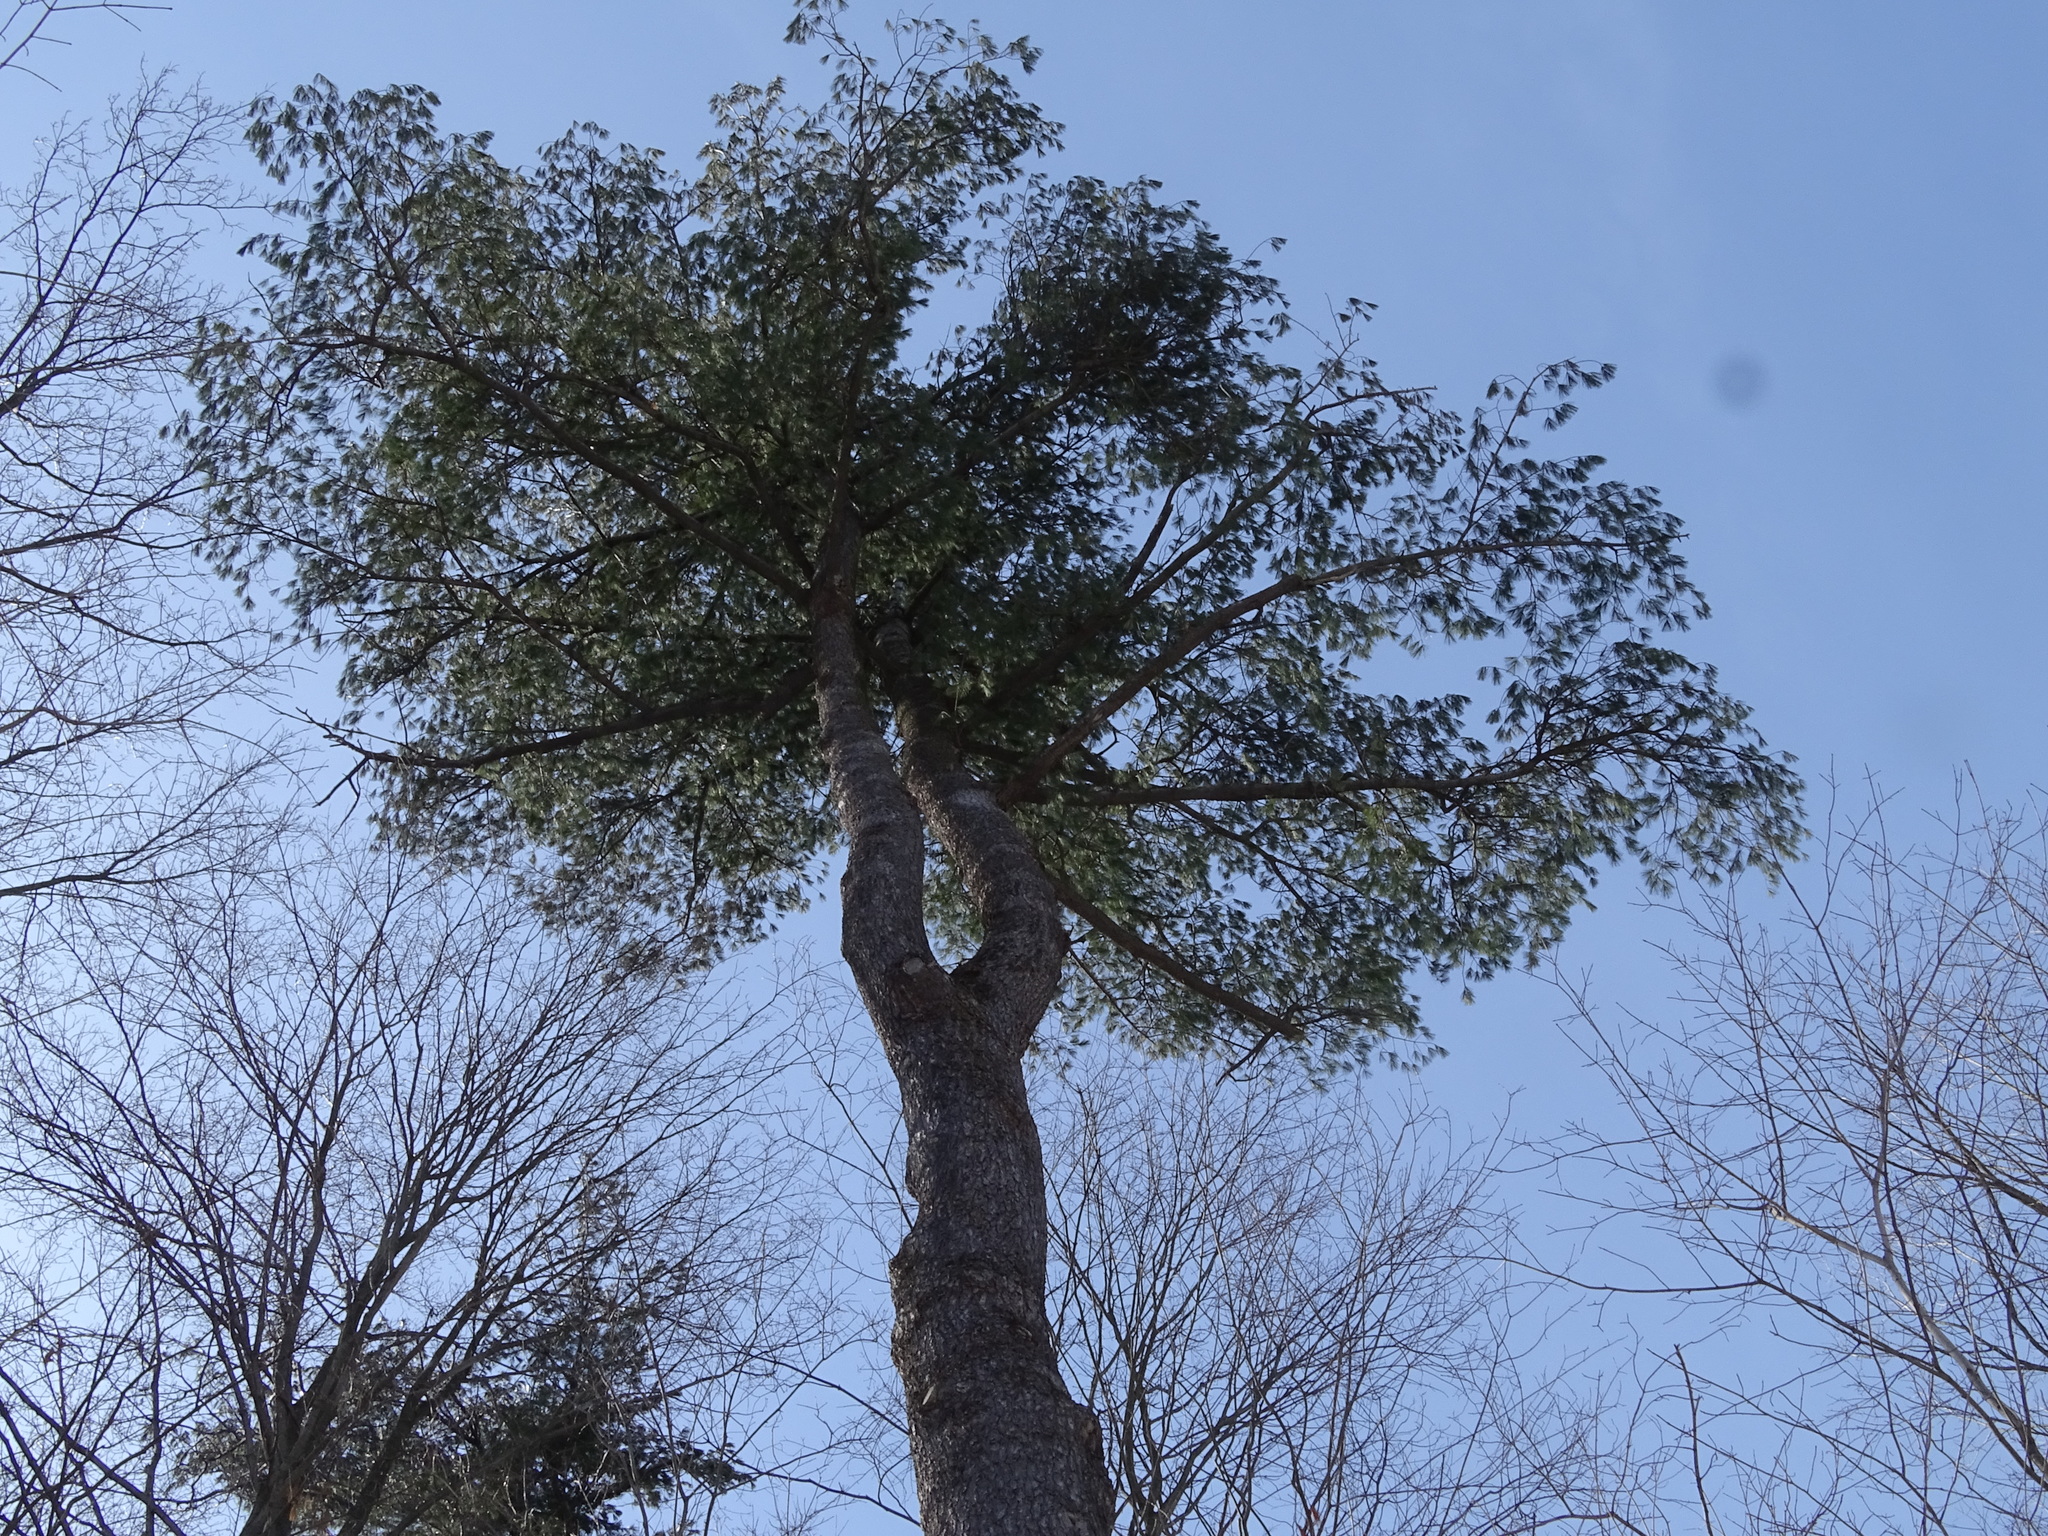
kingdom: Plantae
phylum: Tracheophyta
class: Pinopsida
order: Pinales
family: Pinaceae
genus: Pinus
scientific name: Pinus strobus
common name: Weymouth pine
